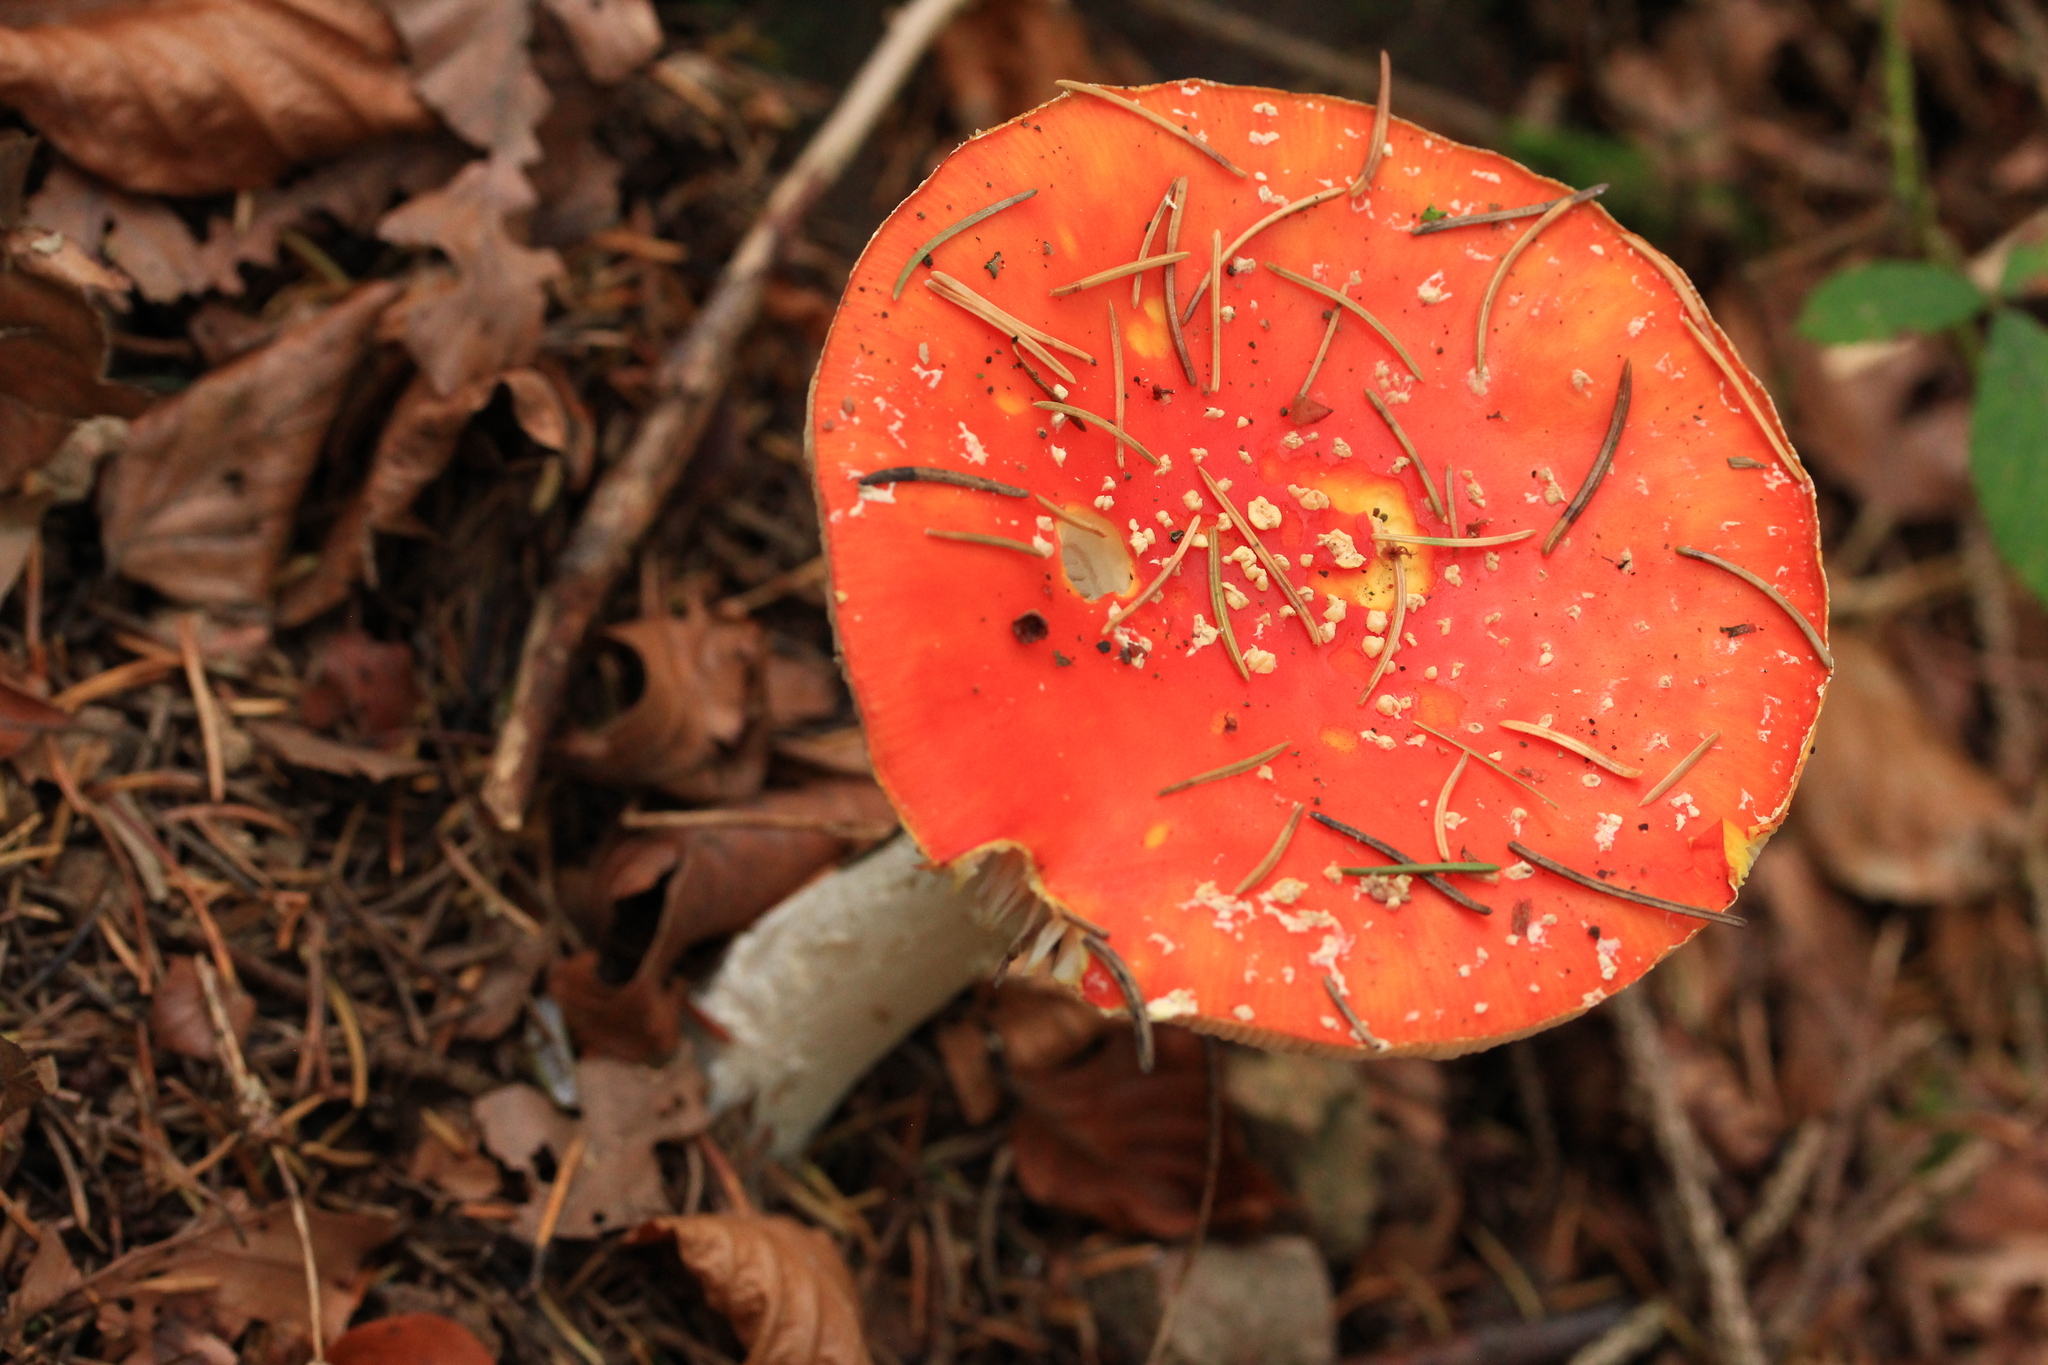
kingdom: Fungi
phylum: Basidiomycota
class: Agaricomycetes
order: Agaricales
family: Amanitaceae
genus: Amanita
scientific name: Amanita muscaria
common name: Fly agaric
